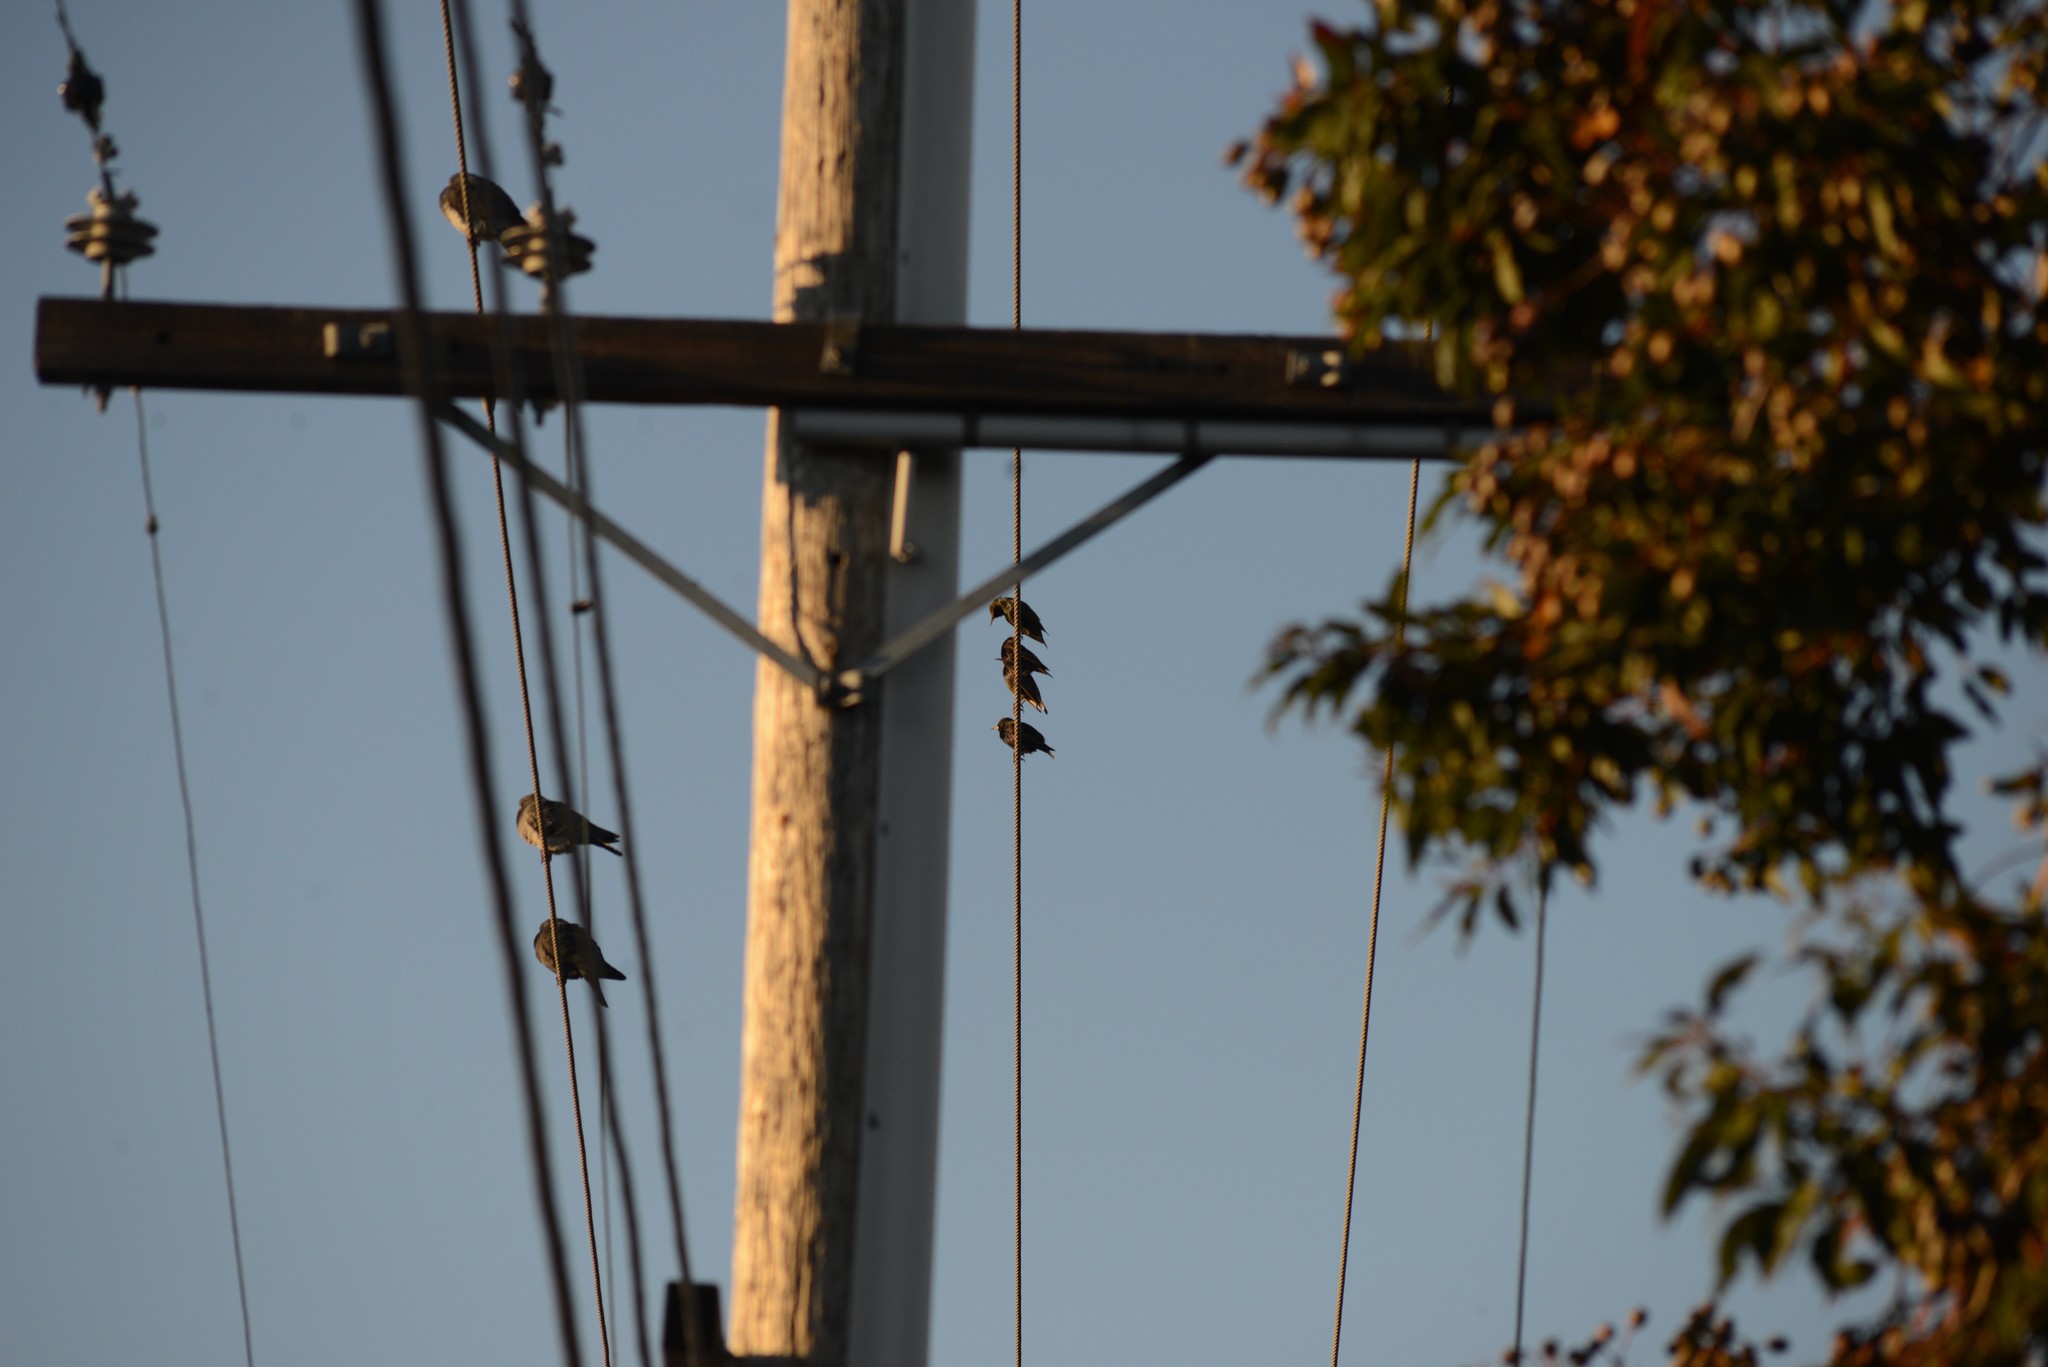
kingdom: Animalia
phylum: Chordata
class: Aves
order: Passeriformes
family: Sturnidae
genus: Sturnus
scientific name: Sturnus vulgaris
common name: Common starling
